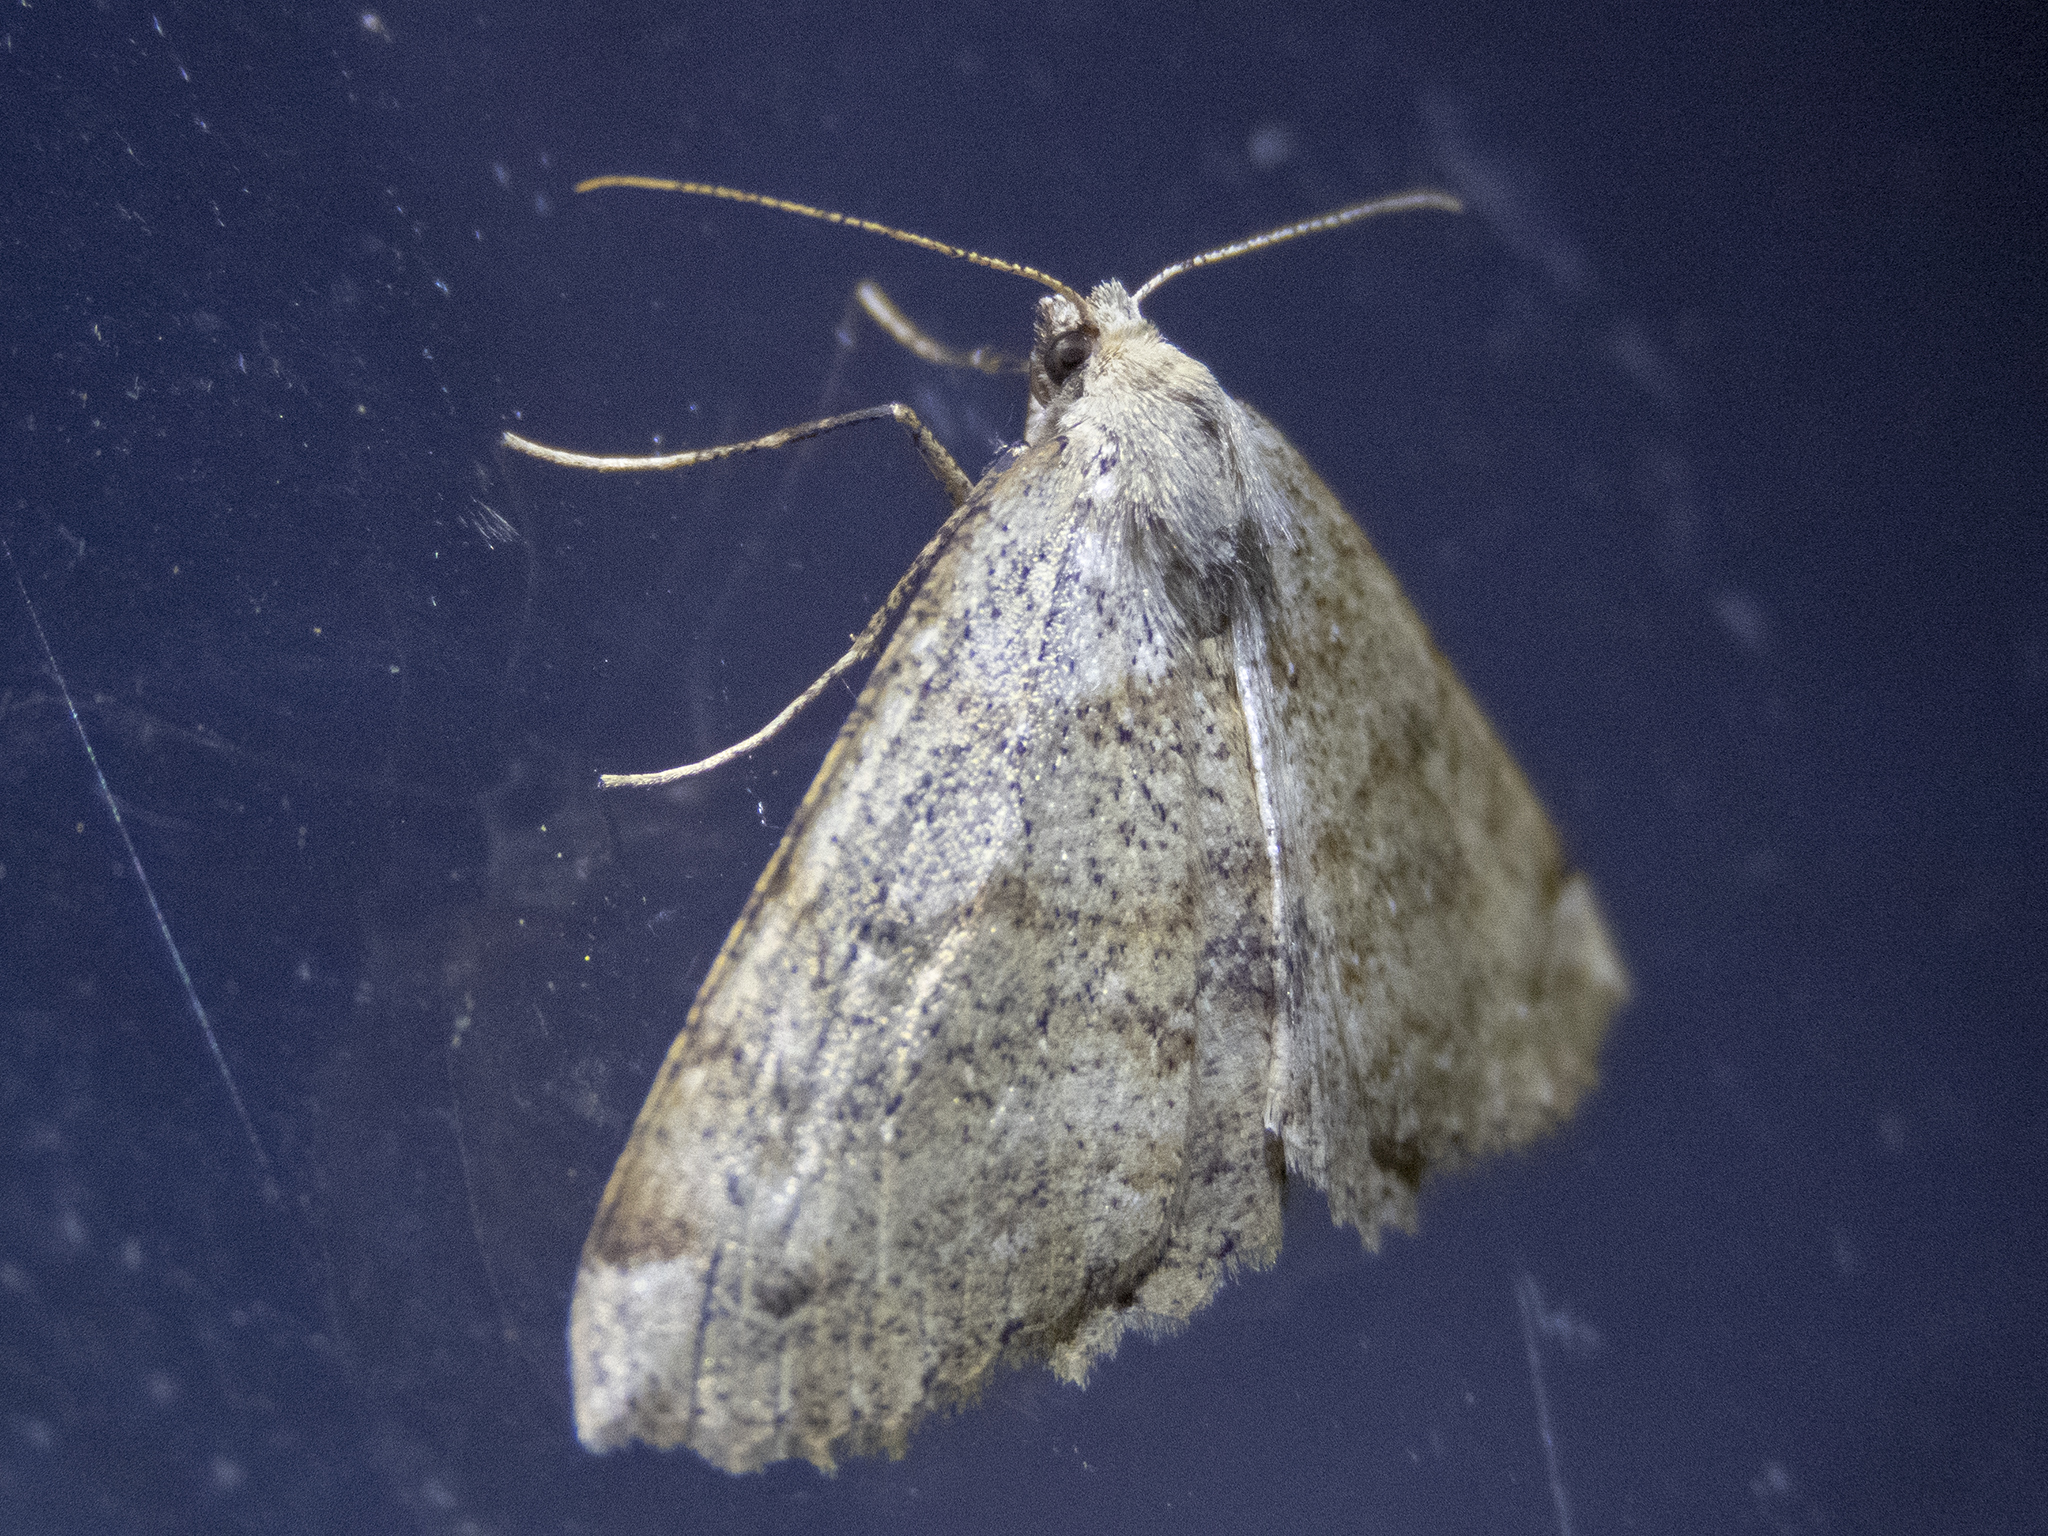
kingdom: Animalia
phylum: Arthropoda
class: Insecta
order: Lepidoptera
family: Geometridae
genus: Cleora
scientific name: Cleora scriptaria
